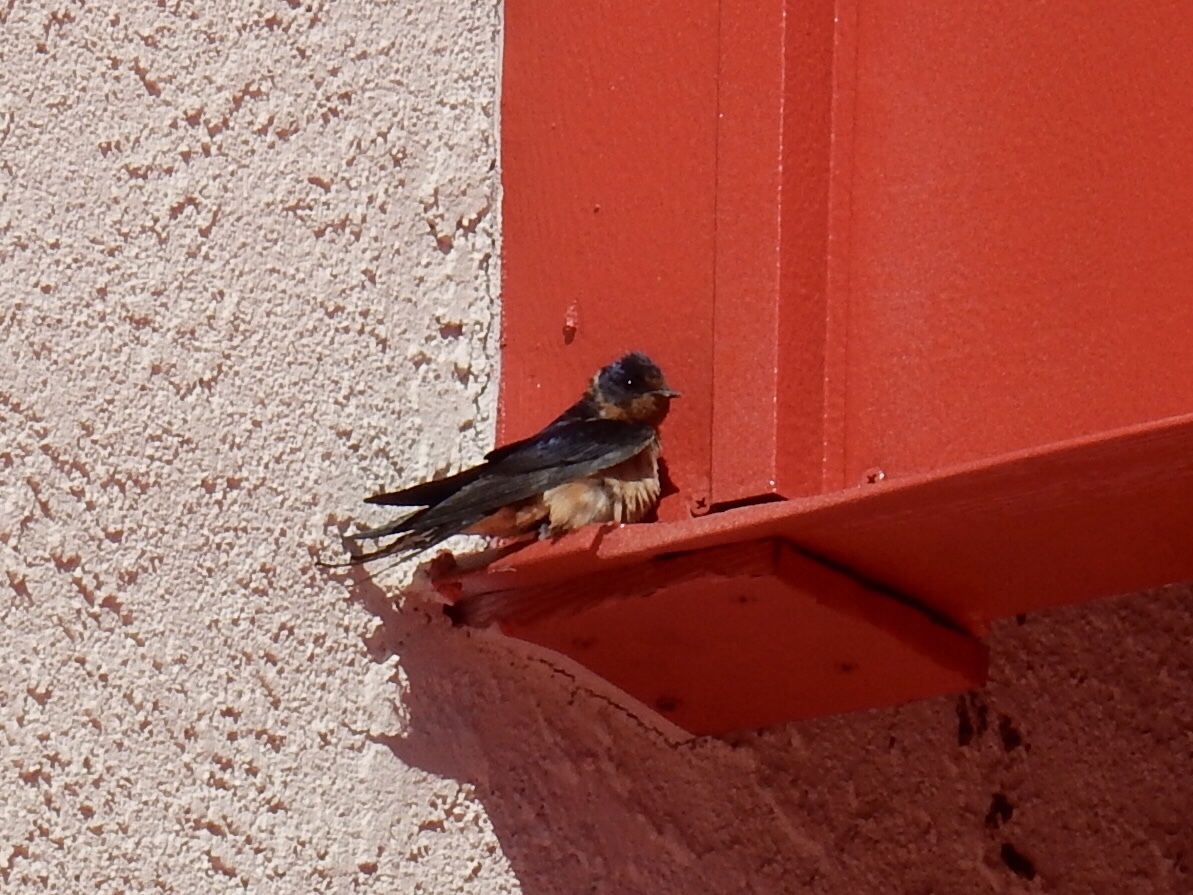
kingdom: Animalia
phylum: Chordata
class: Aves
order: Passeriformes
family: Hirundinidae
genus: Hirundo
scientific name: Hirundo rustica
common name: Barn swallow
